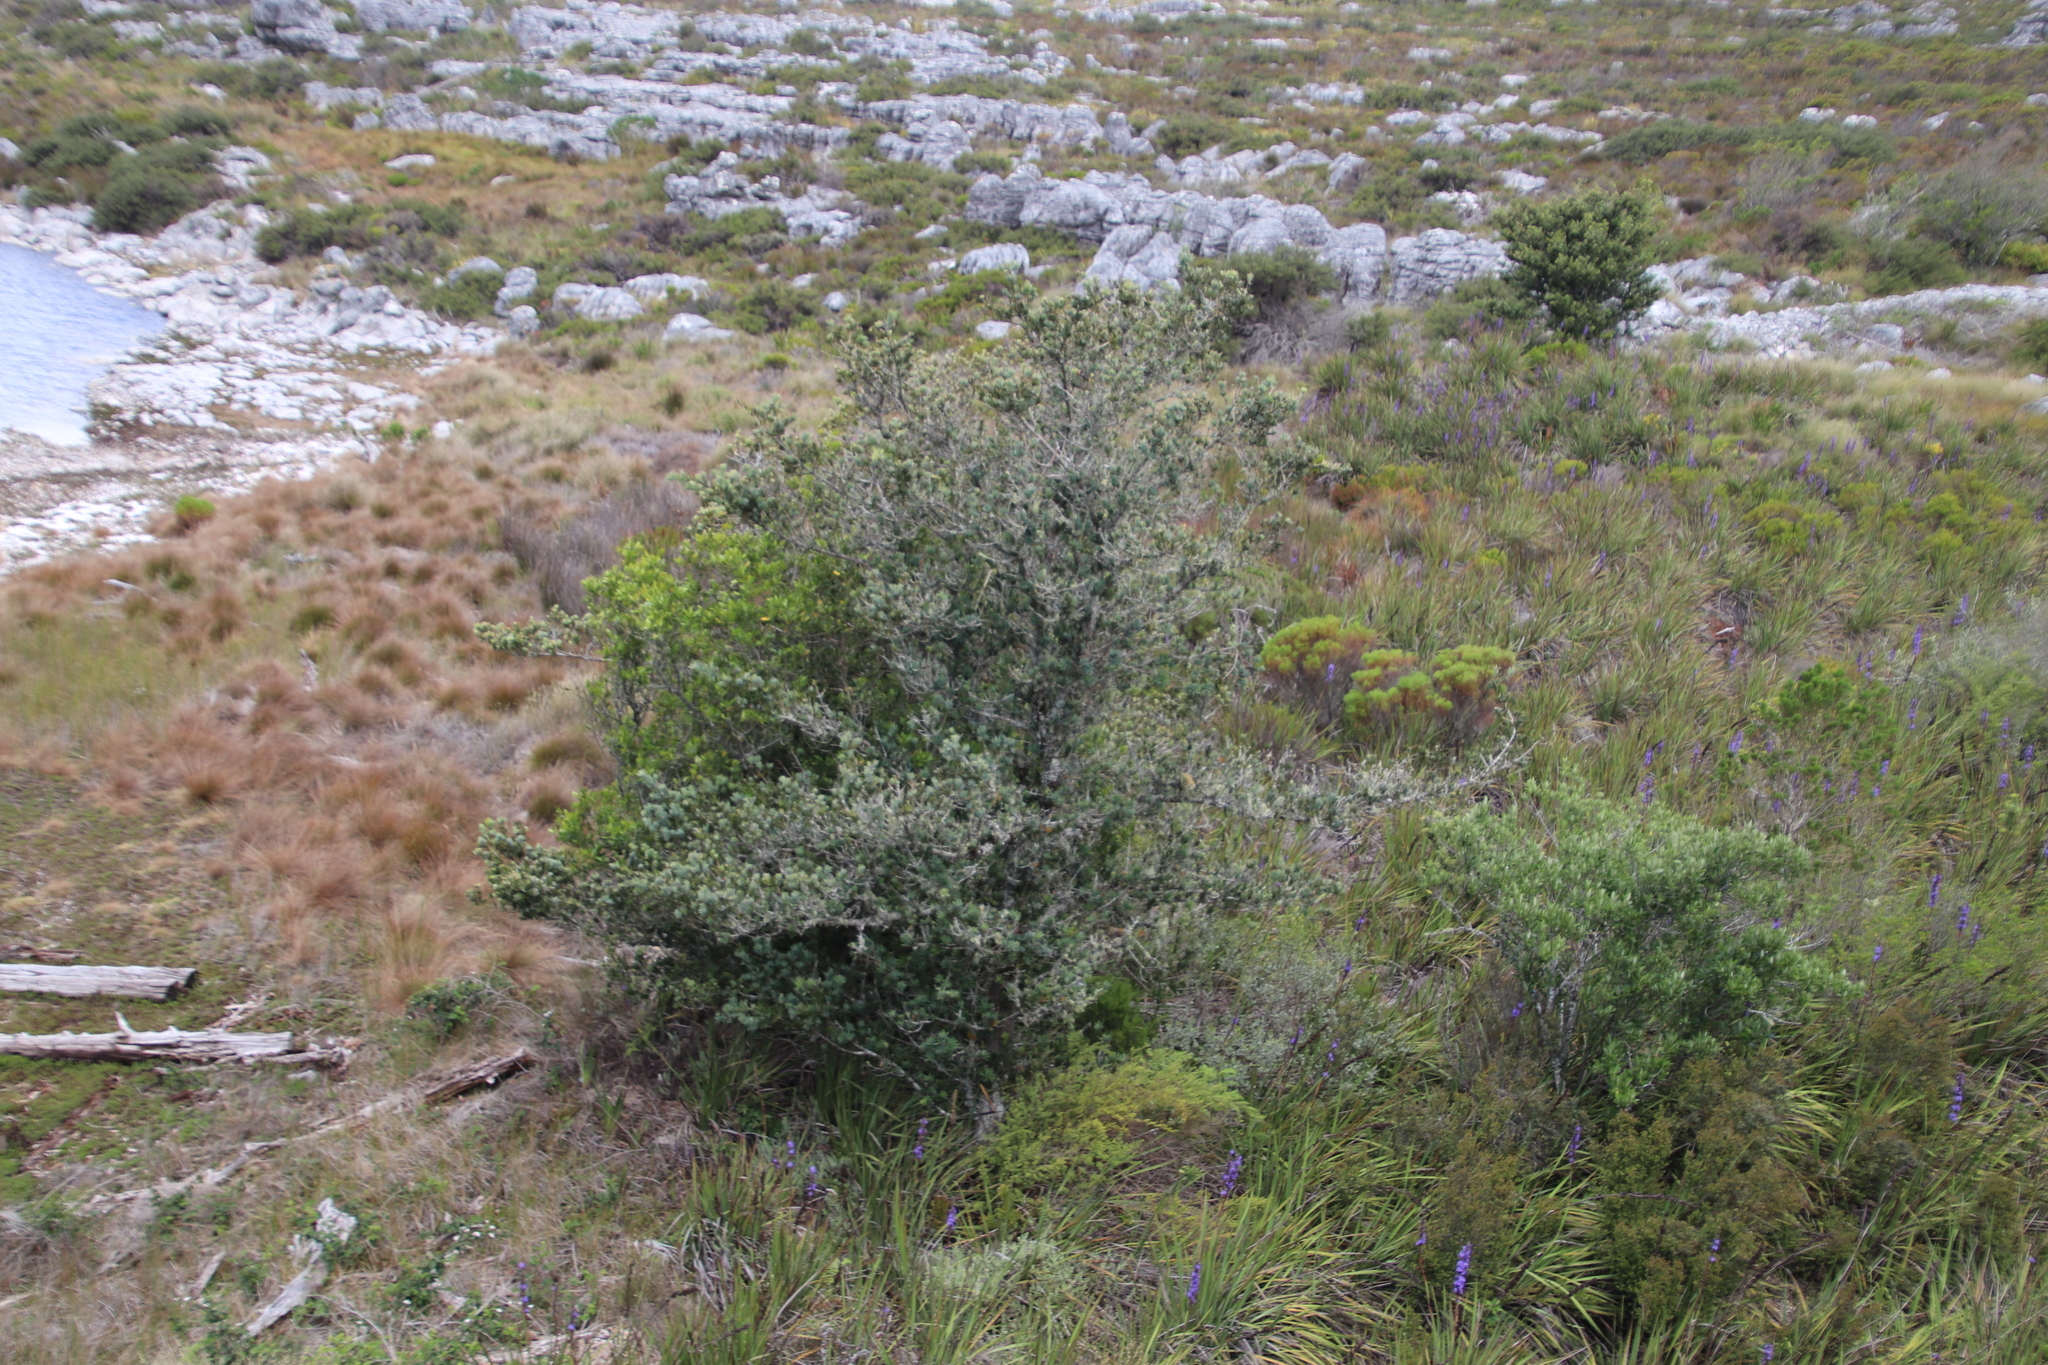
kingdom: Plantae
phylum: Tracheophyta
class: Pinopsida
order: Pinales
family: Podocarpaceae
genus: Podocarpus
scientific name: Podocarpus latifolius
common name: True yellowwood
